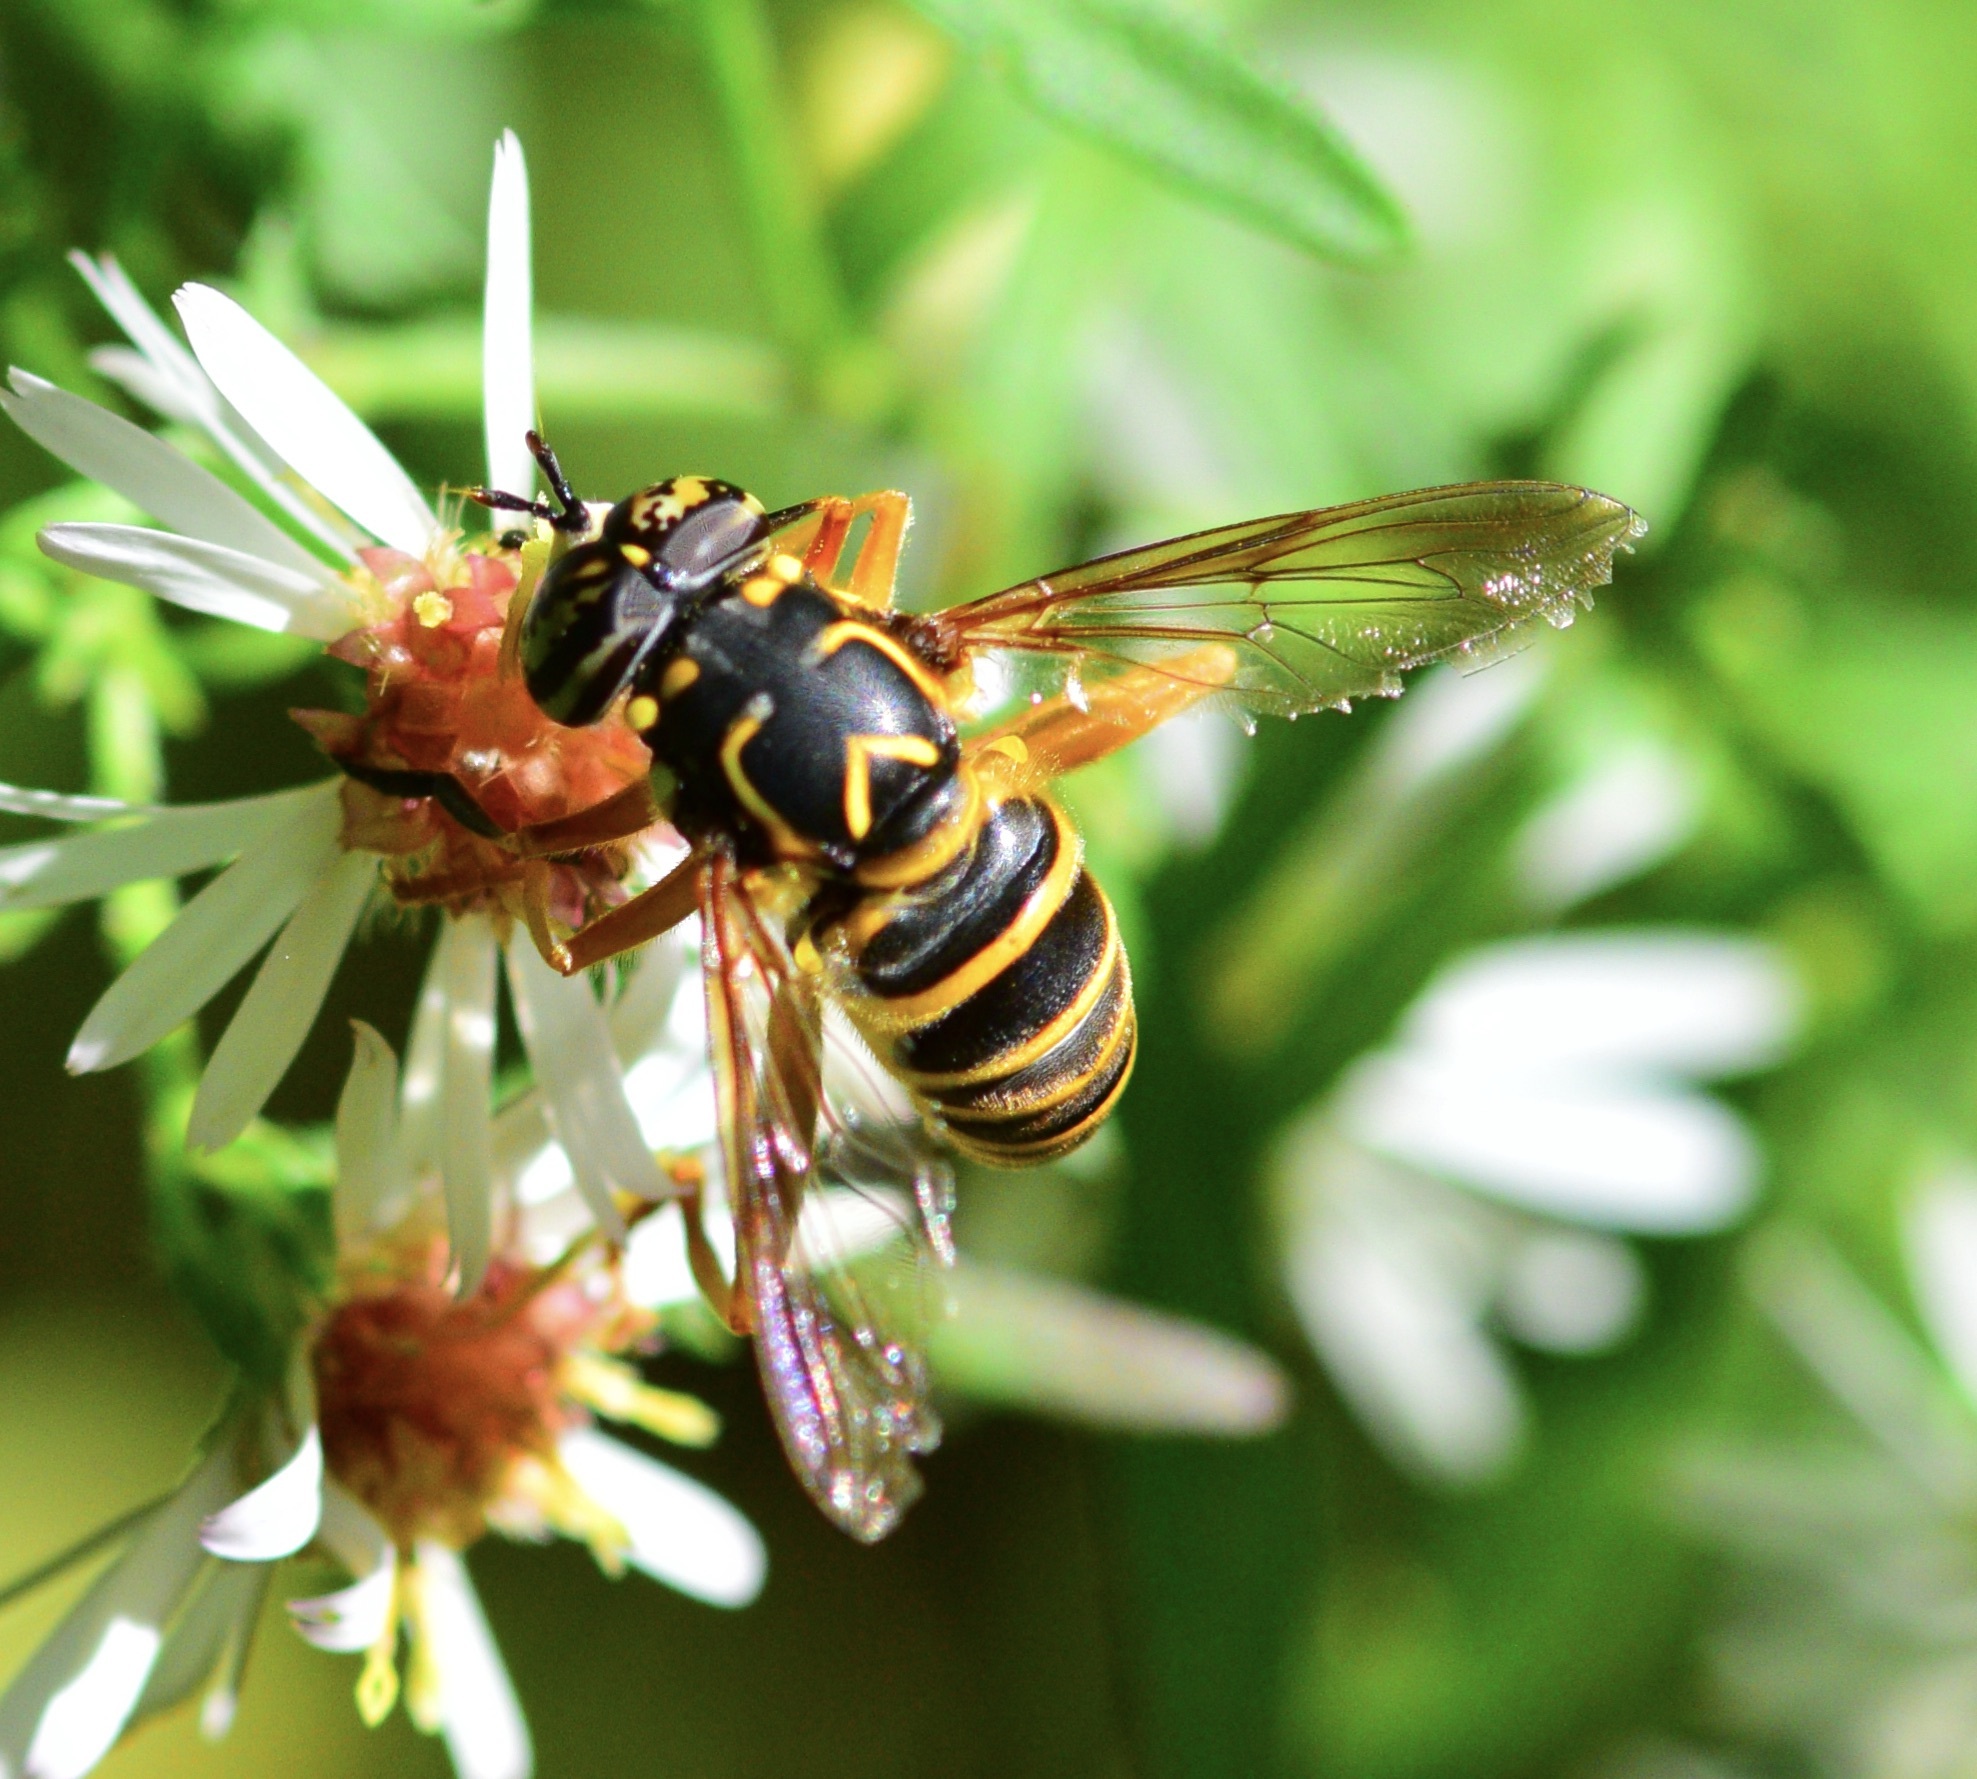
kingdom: Animalia
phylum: Arthropoda
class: Insecta
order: Diptera
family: Syrphidae
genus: Spilomyia
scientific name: Spilomyia longicornis
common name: Eastern hornet fly
